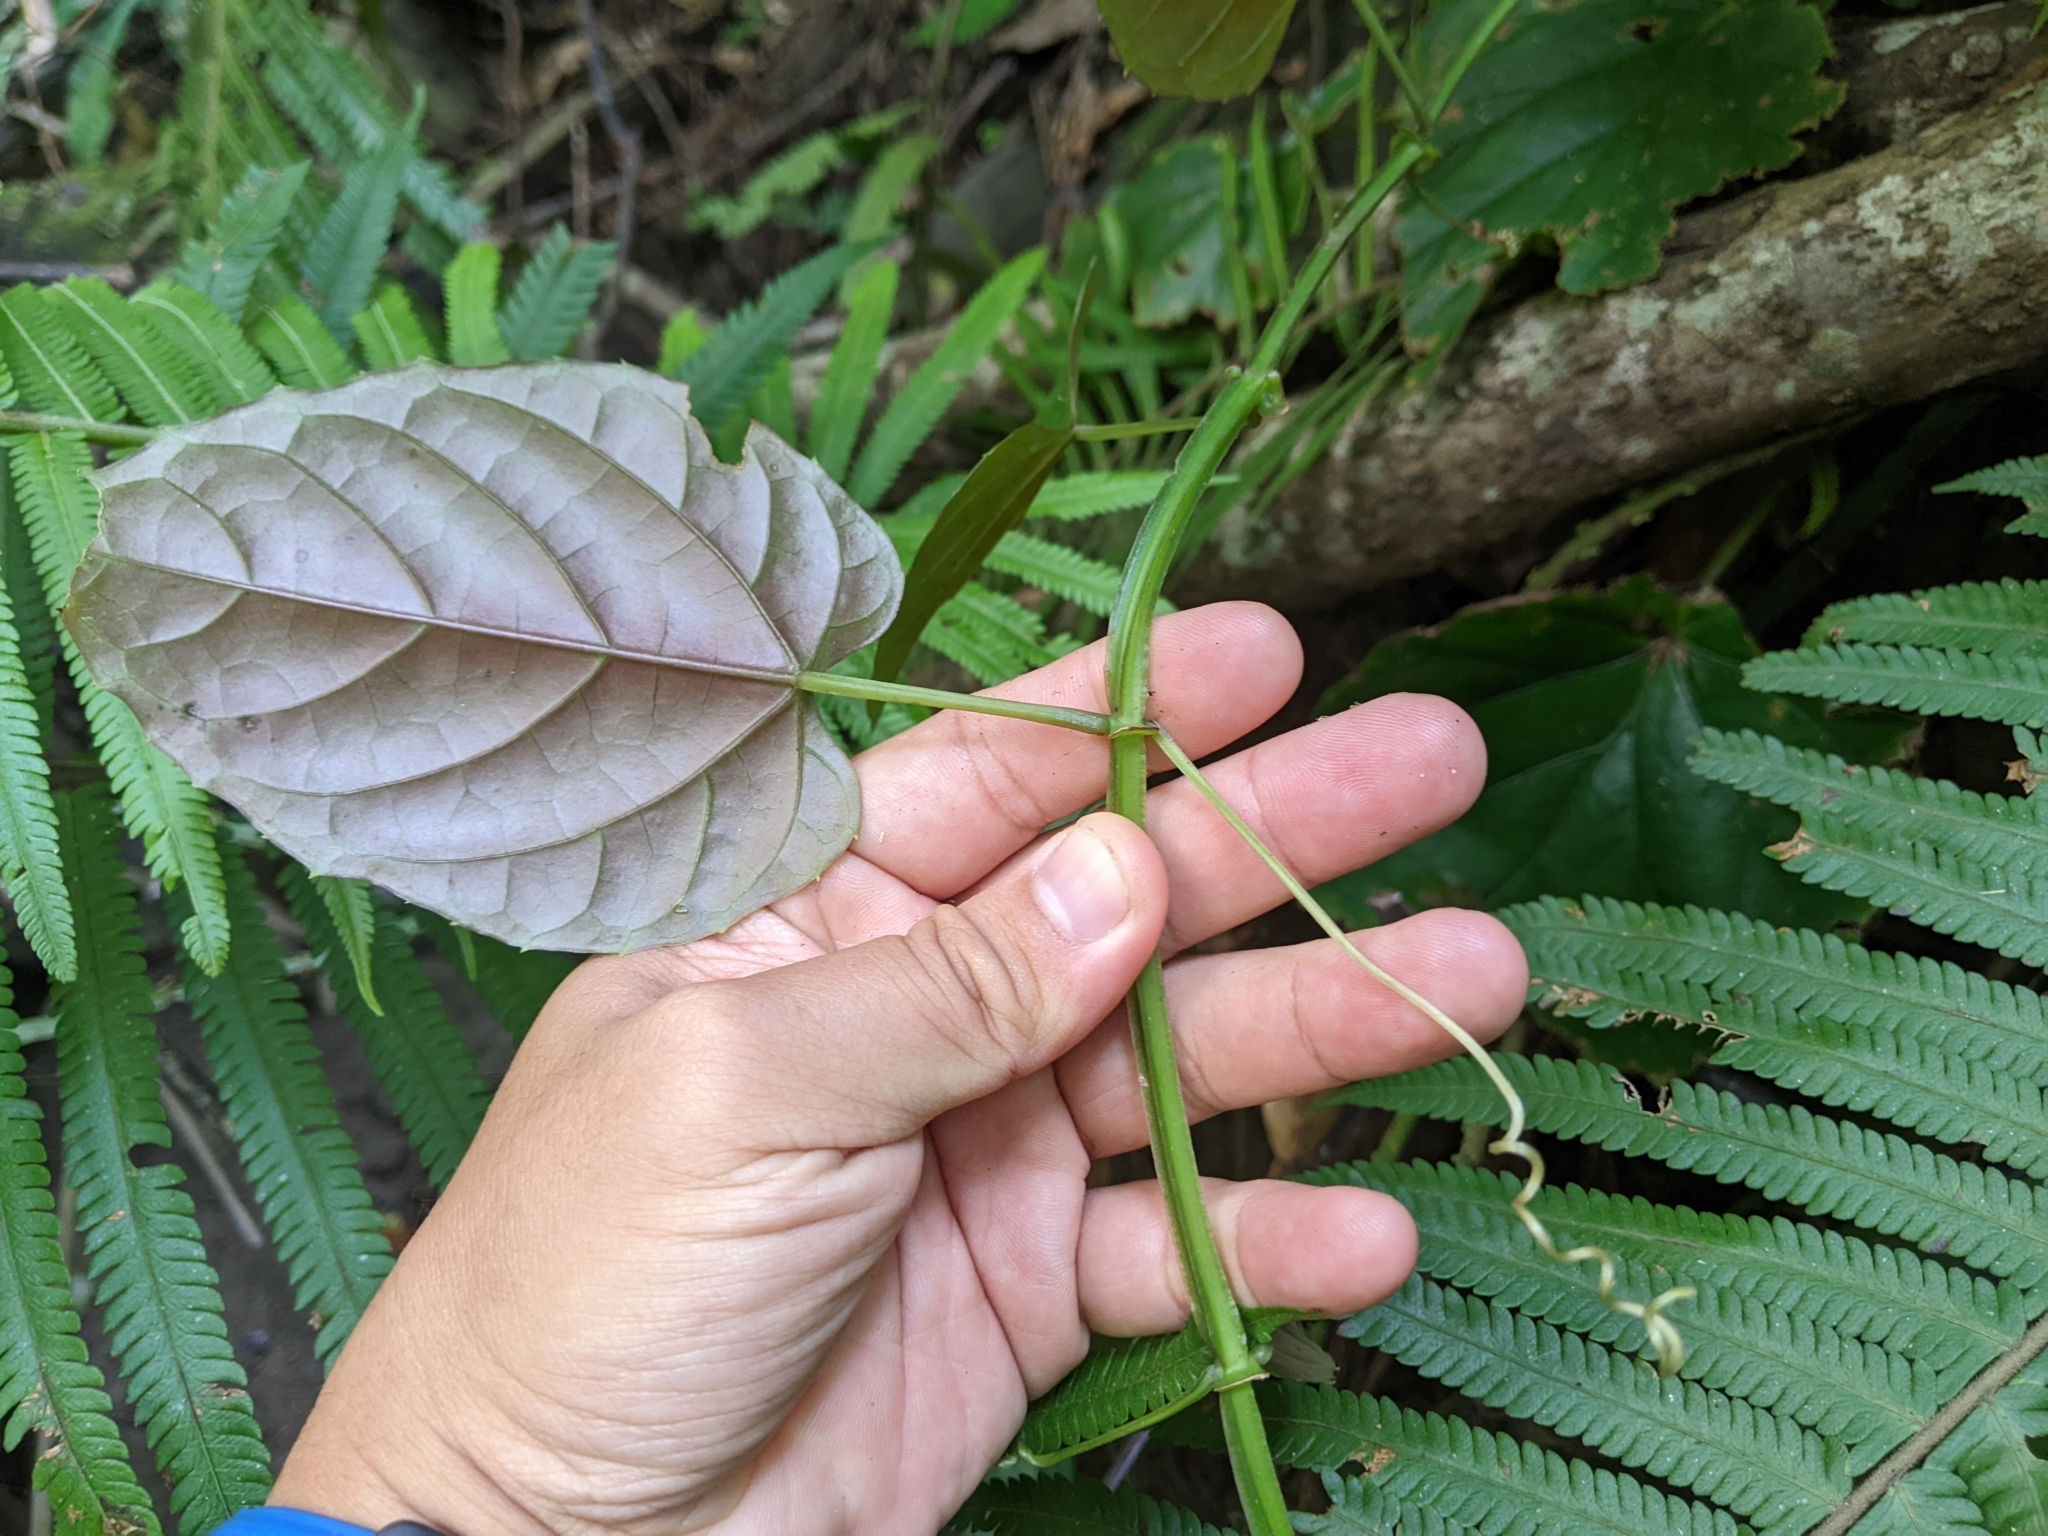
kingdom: Plantae
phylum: Tracheophyta
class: Magnoliopsida
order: Vitales
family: Vitaceae
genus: Cissus
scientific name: Cissus pteroclada
